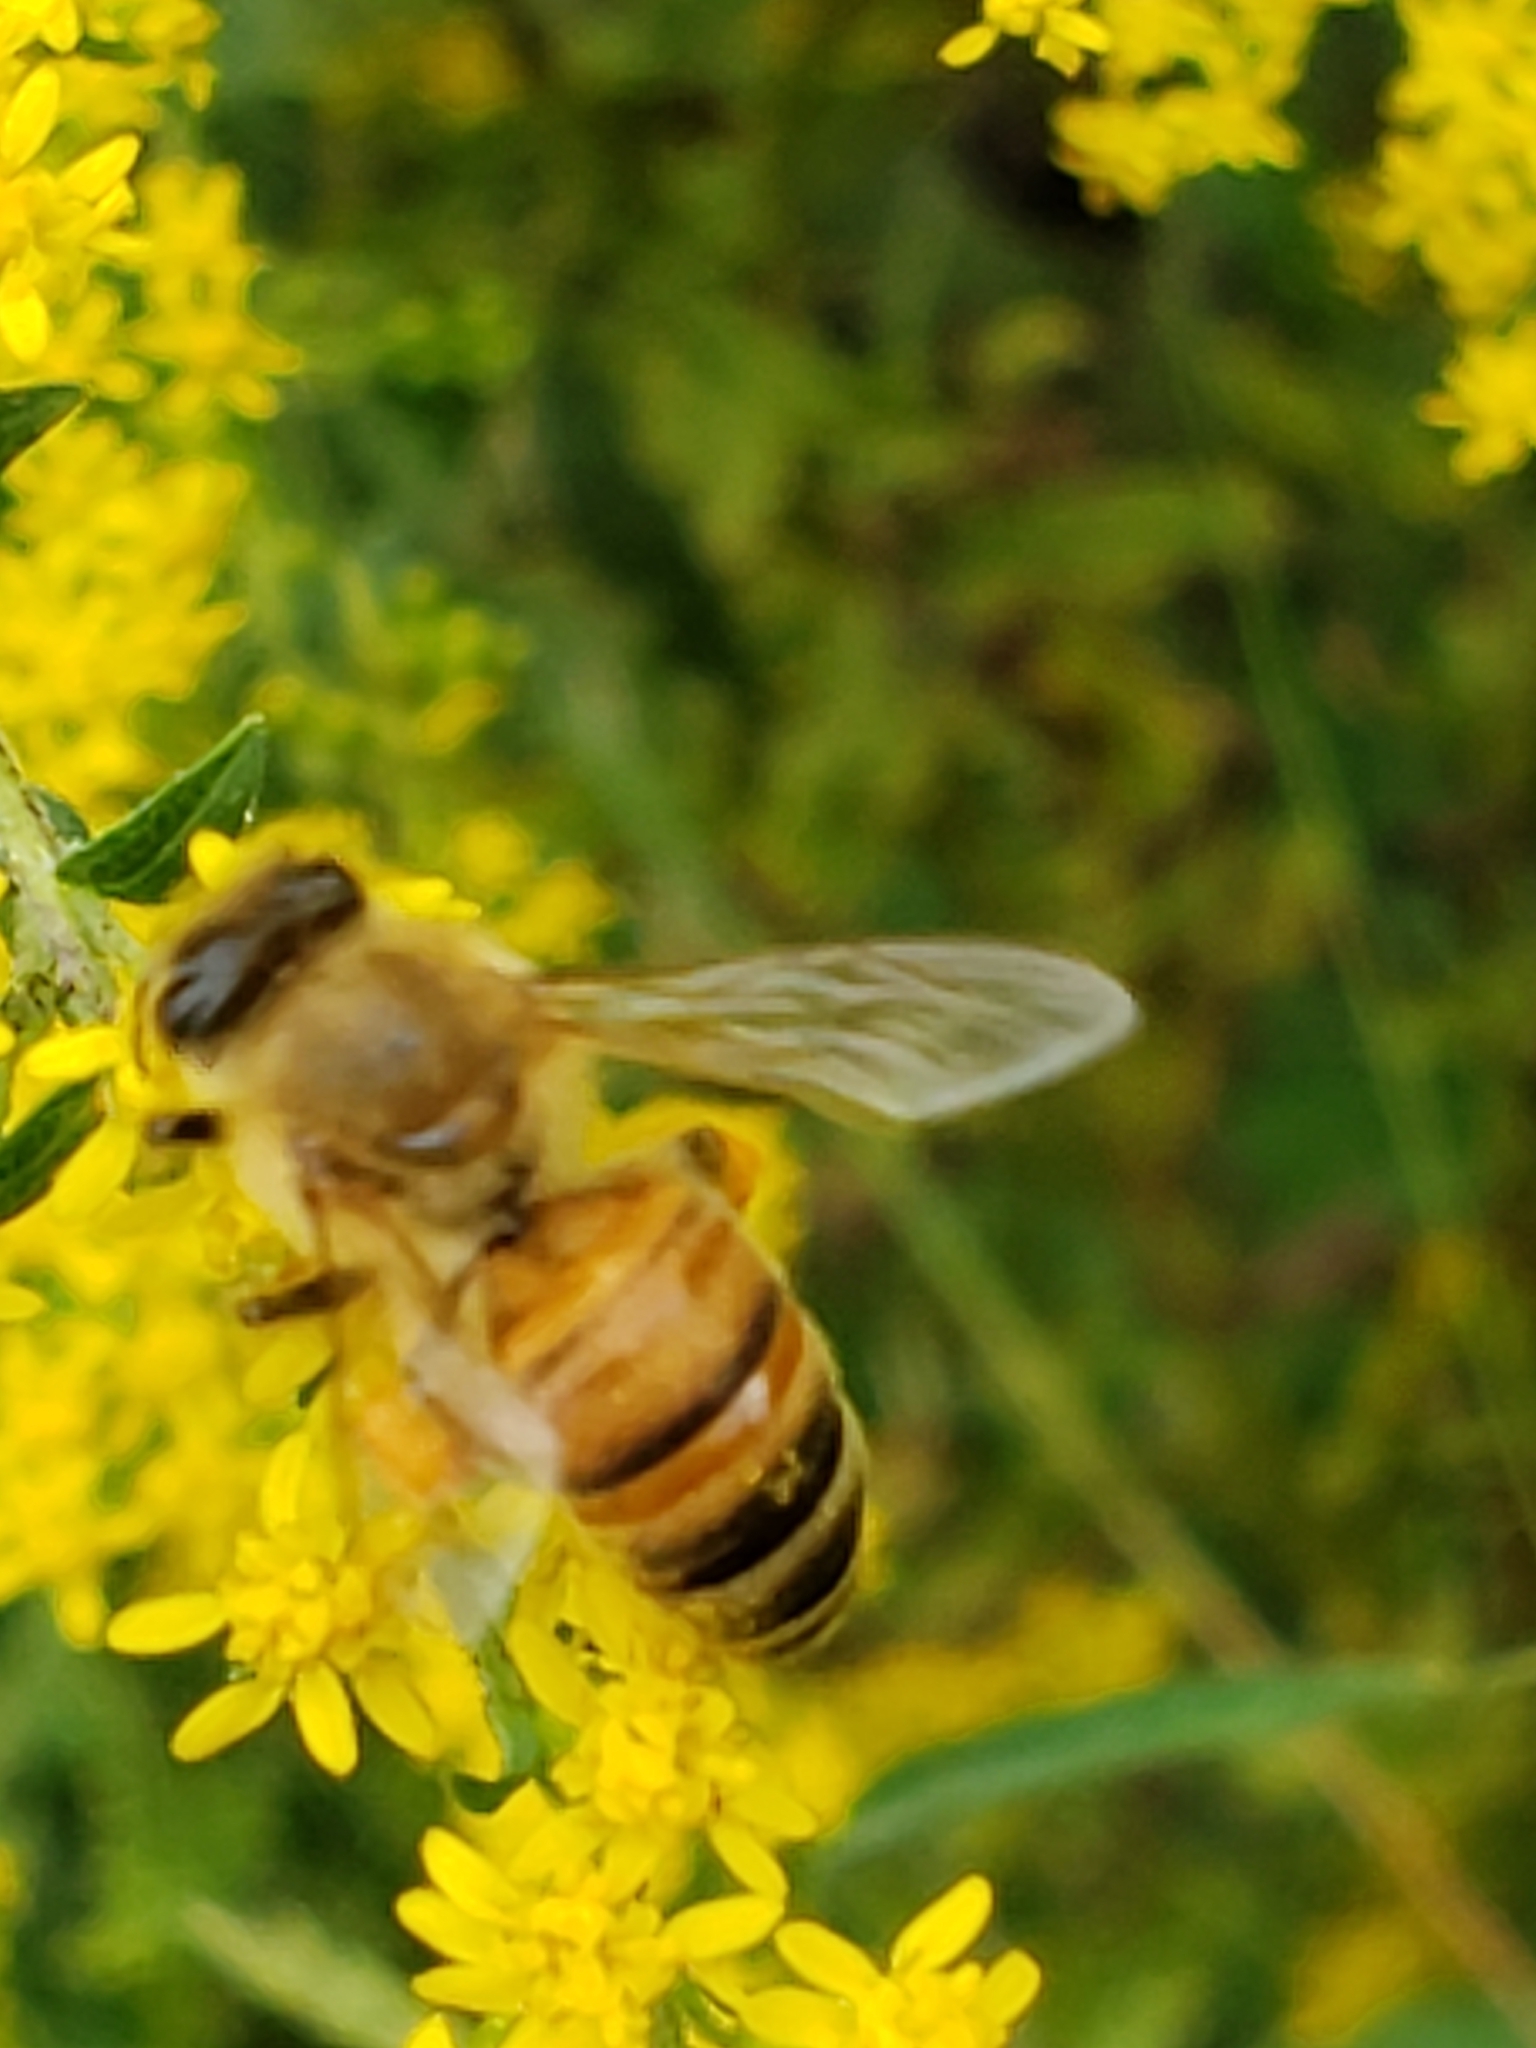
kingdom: Animalia
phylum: Arthropoda
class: Insecta
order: Hymenoptera
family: Apidae
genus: Apis
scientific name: Apis mellifera
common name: Honey bee
